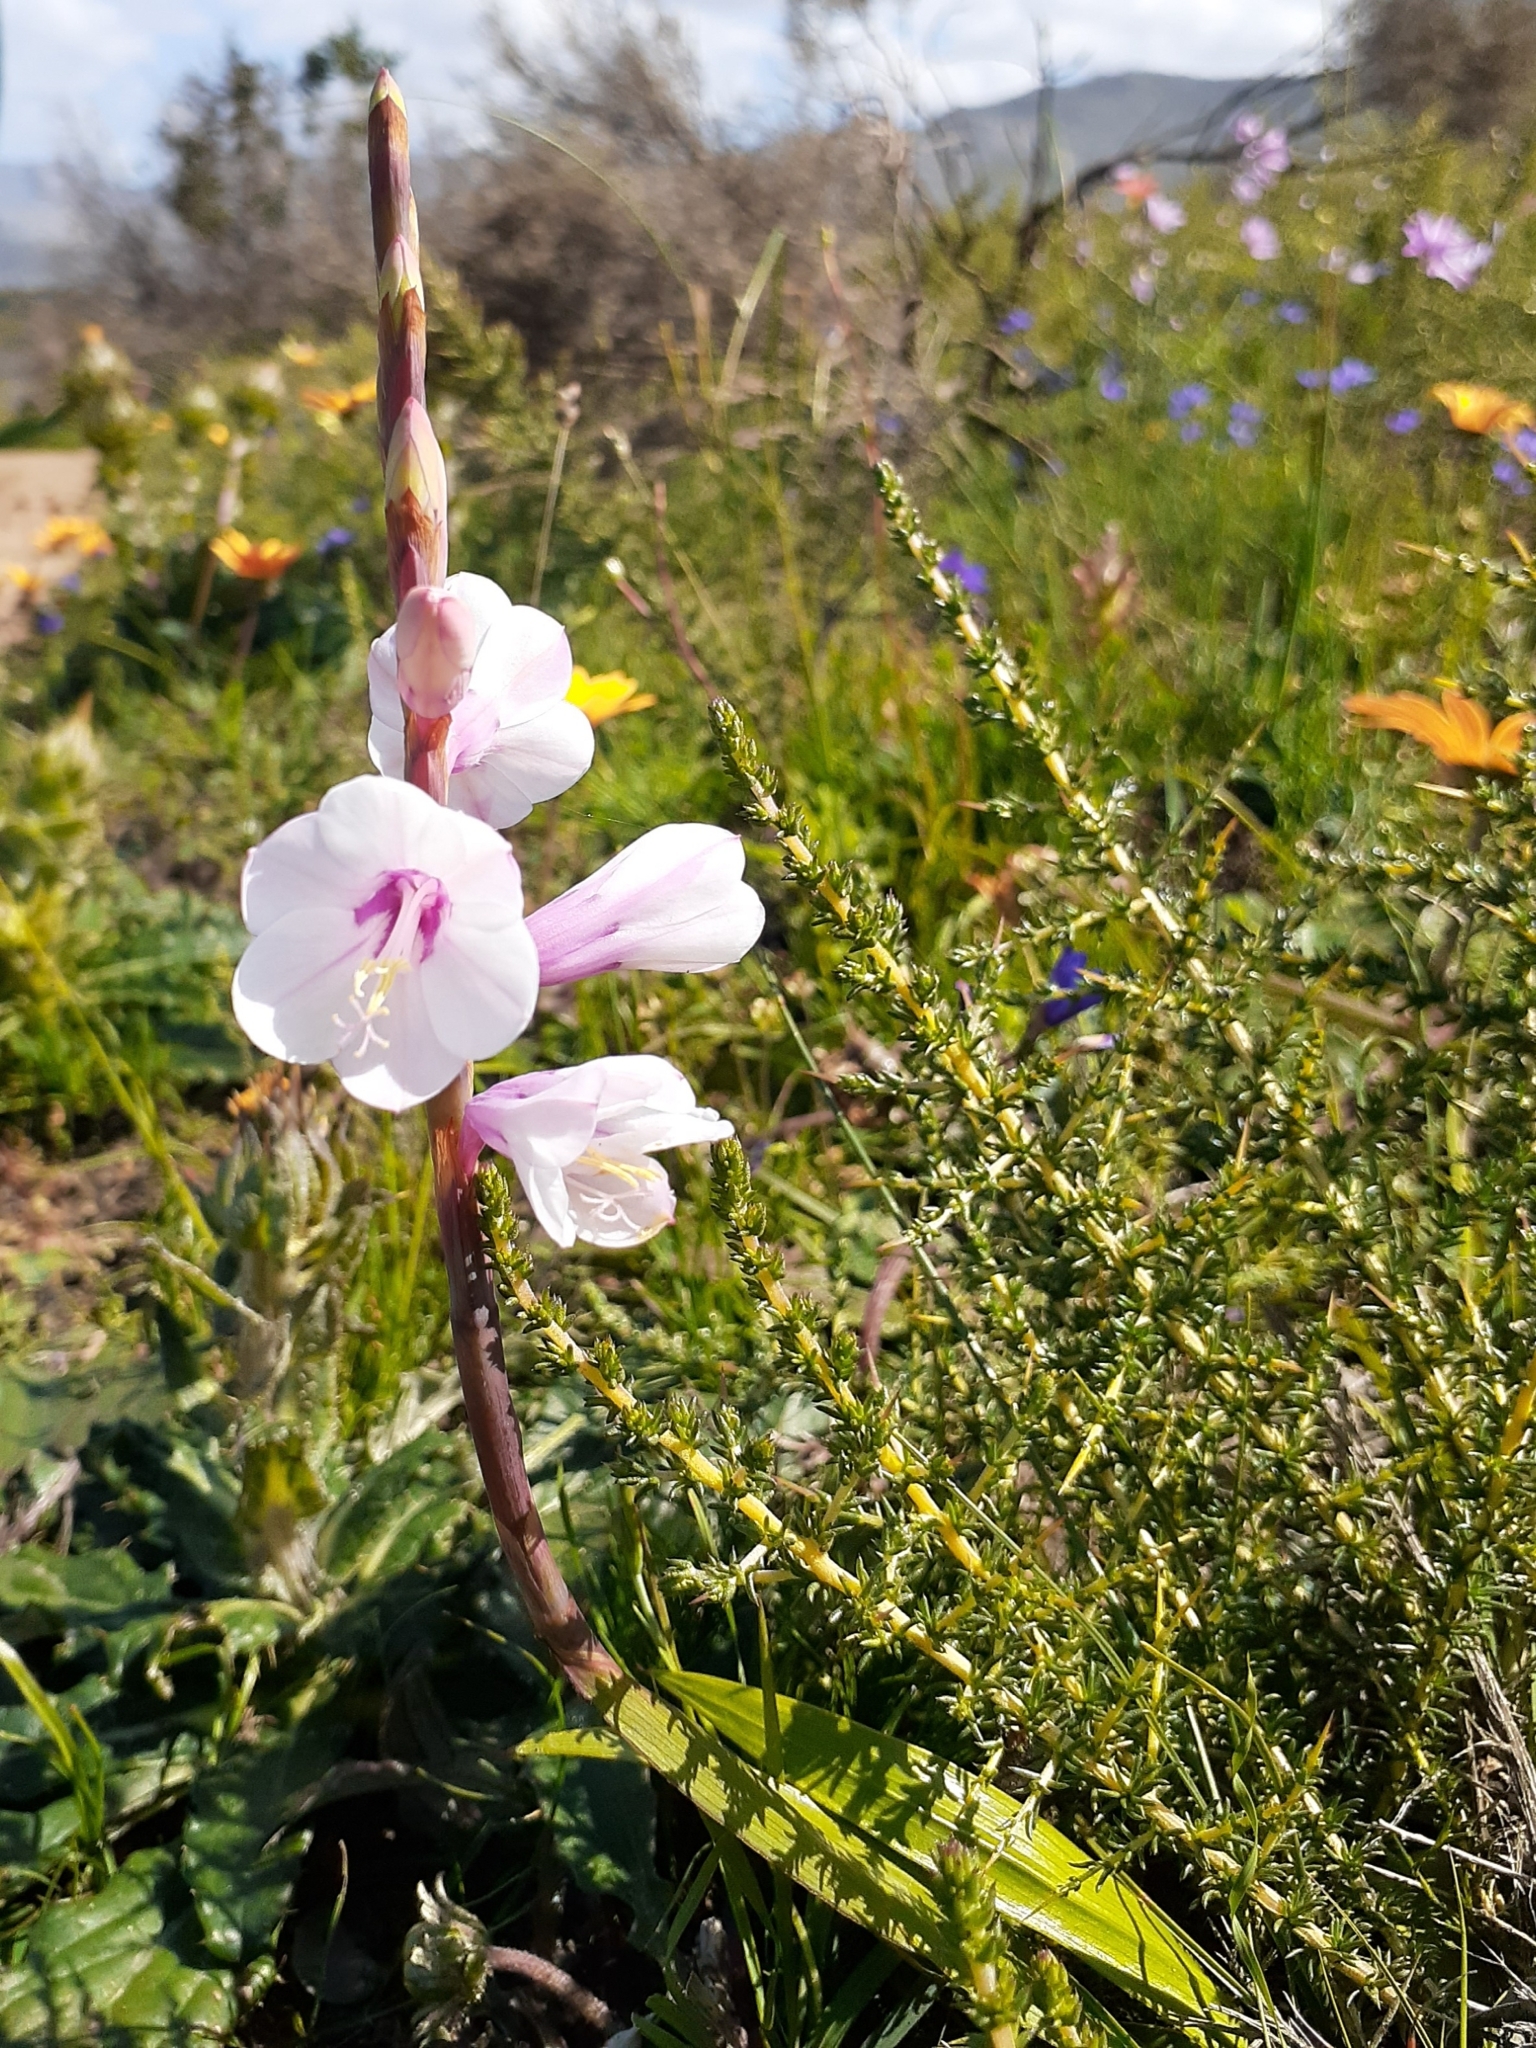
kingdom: Plantae
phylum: Tracheophyta
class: Liliopsida
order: Asparagales
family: Iridaceae
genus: Watsonia
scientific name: Watsonia borbonica
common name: Bugle-lily
